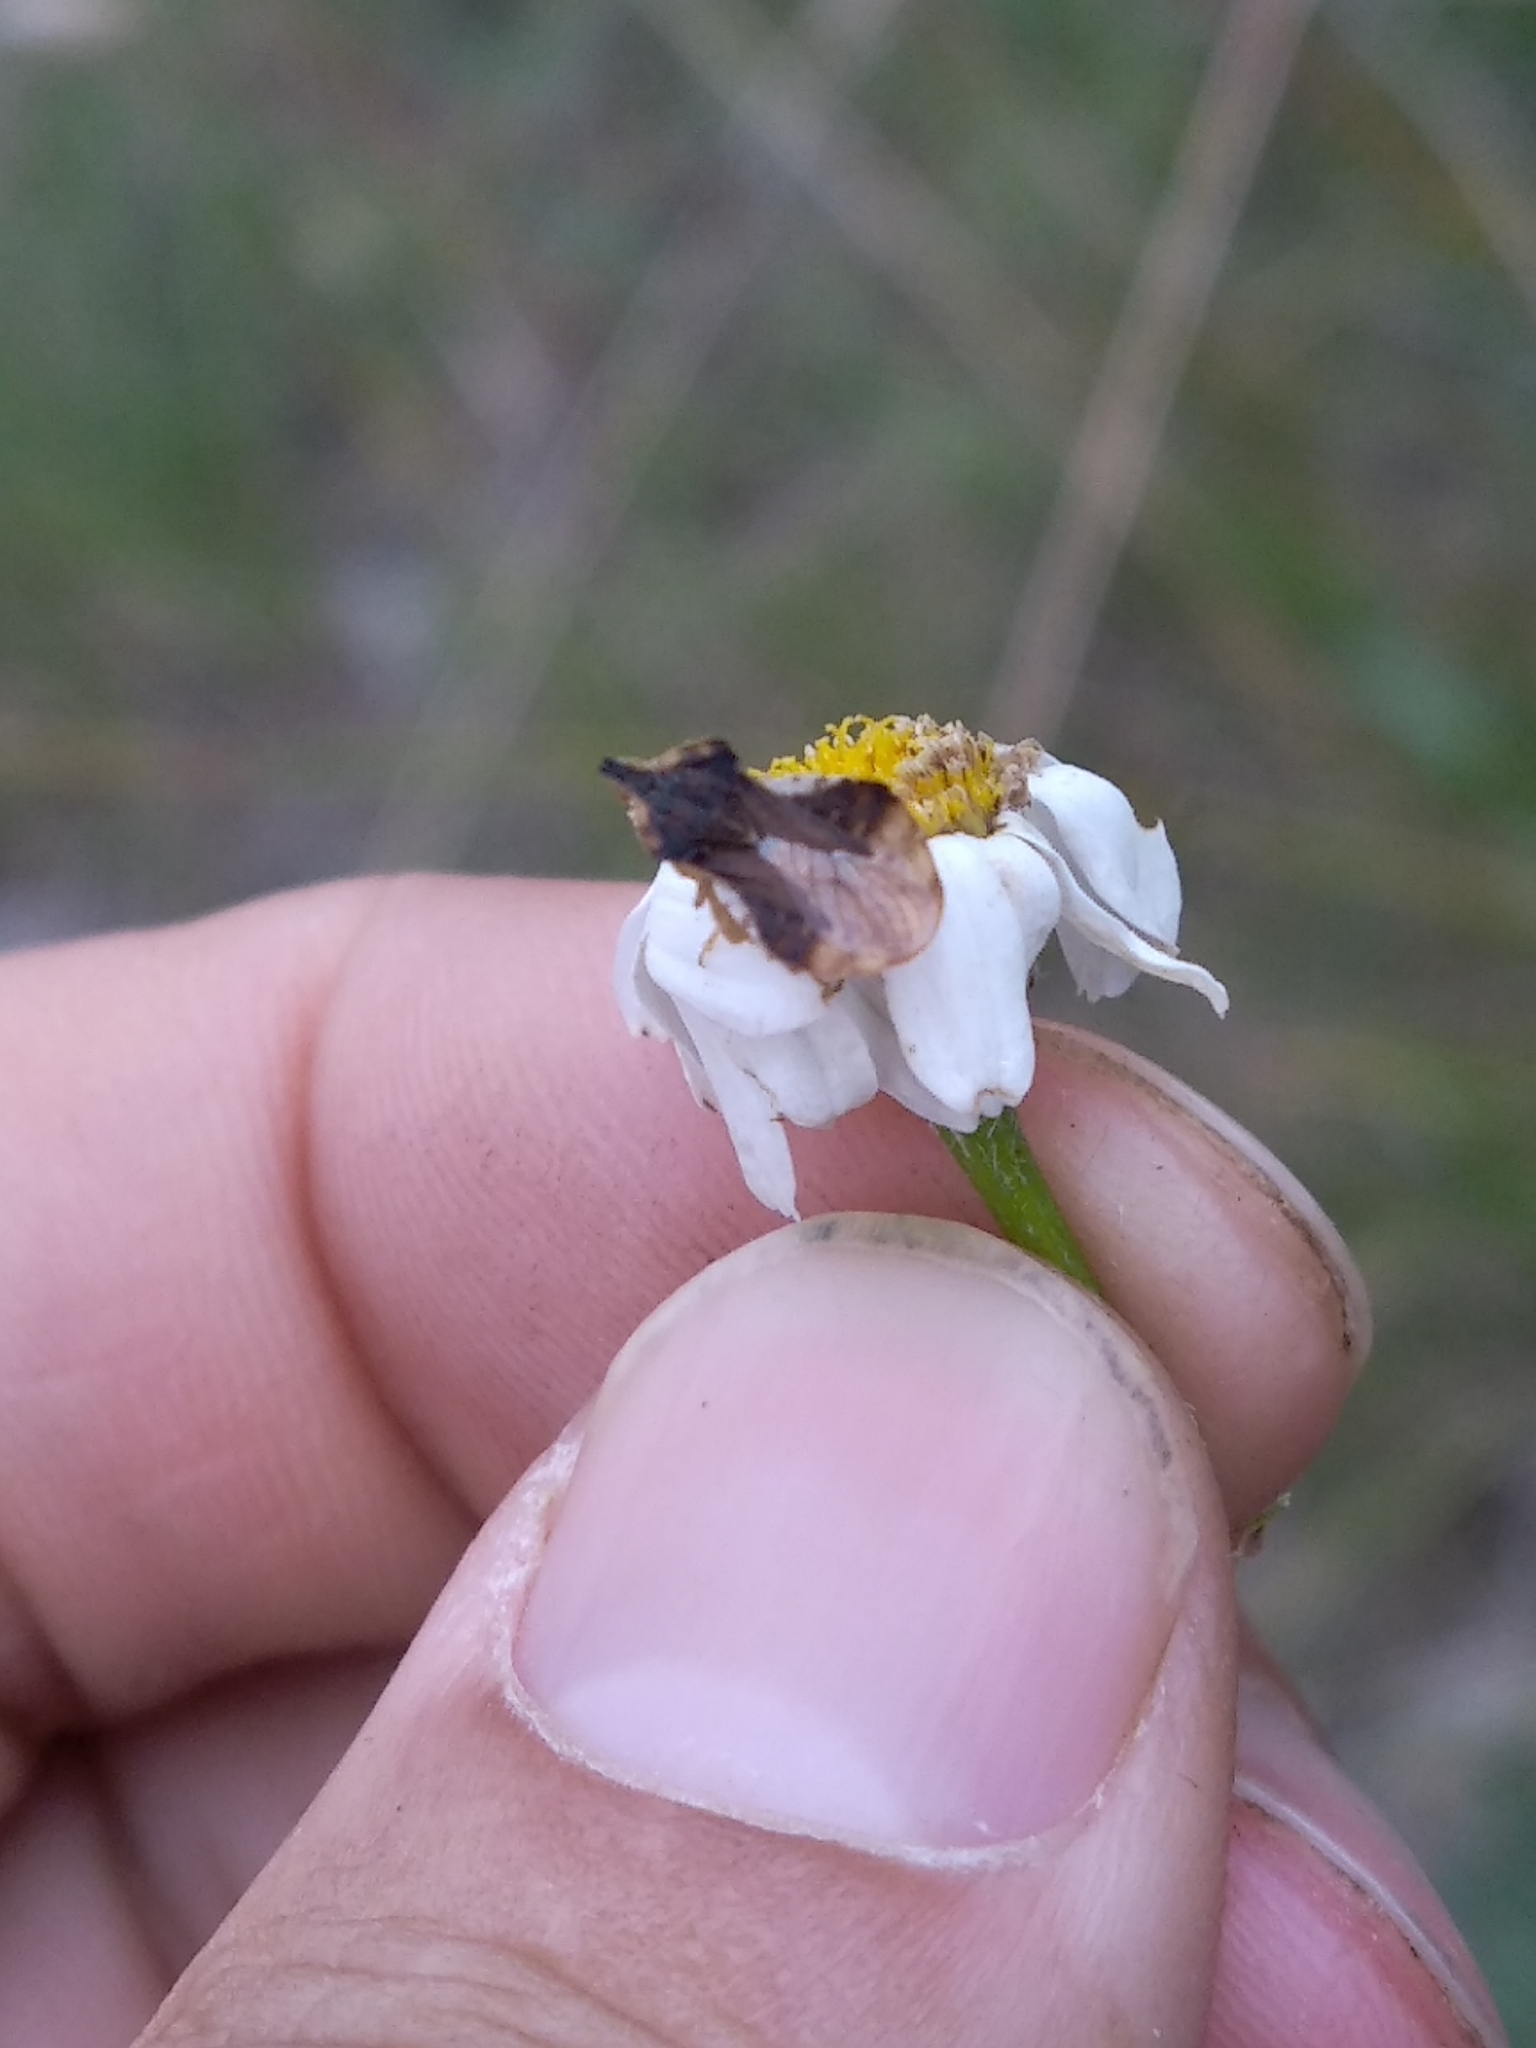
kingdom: Animalia
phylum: Arthropoda
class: Insecta
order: Hemiptera
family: Reduviidae
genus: Phymata
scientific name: Phymata crassipes
